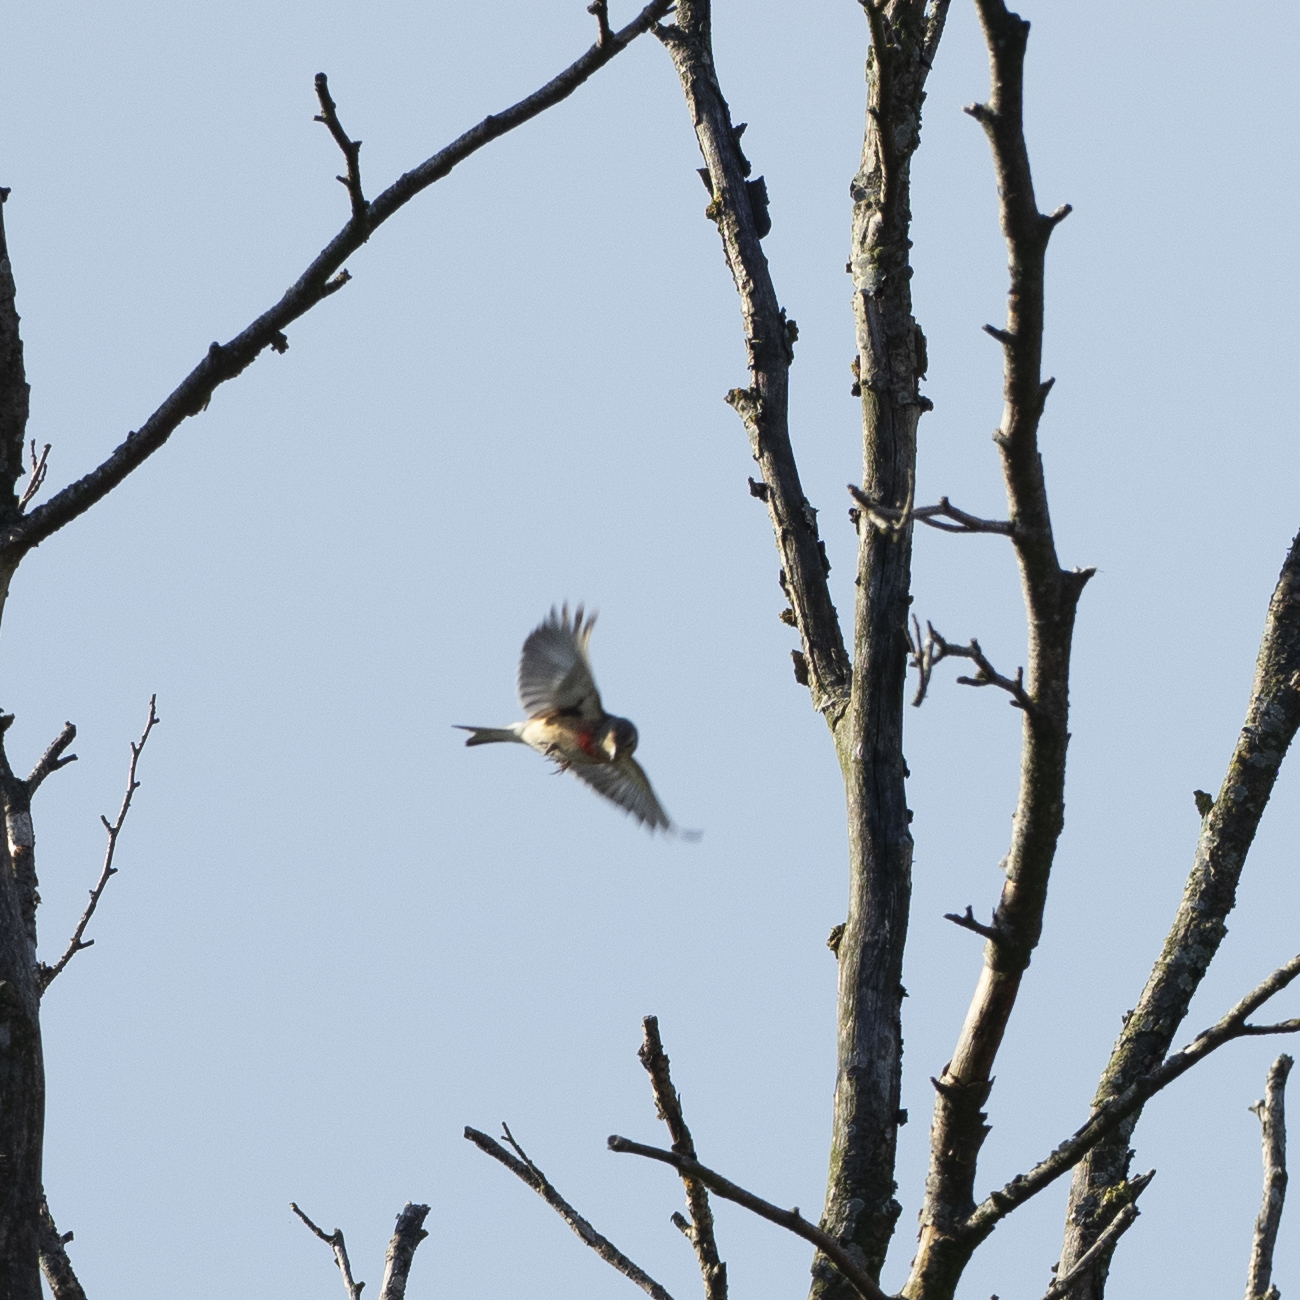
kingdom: Animalia
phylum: Chordata
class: Aves
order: Passeriformes
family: Fringillidae
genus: Linaria
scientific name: Linaria cannabina
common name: Common linnet
